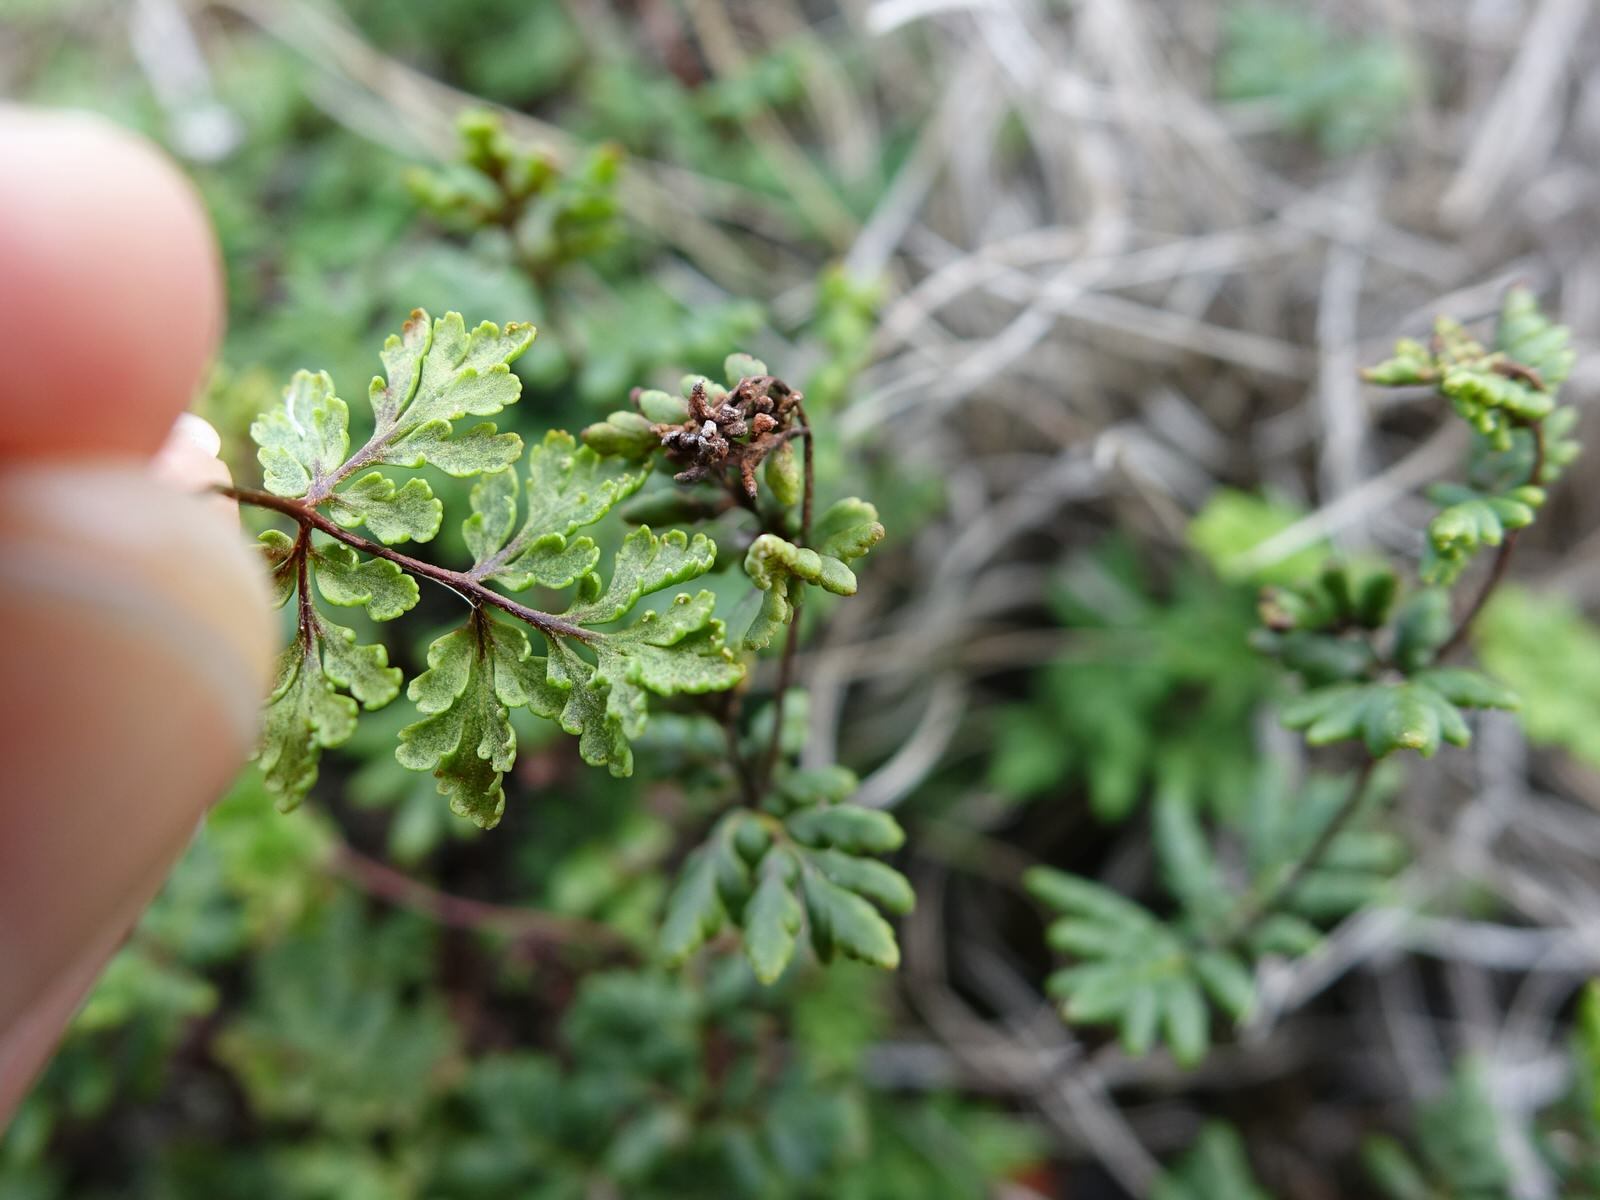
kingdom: Plantae
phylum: Tracheophyta
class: Polypodiopsida
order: Polypodiales
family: Pteridaceae
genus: Cheilanthes
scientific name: Cheilanthes sieberi
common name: Mulga fern
